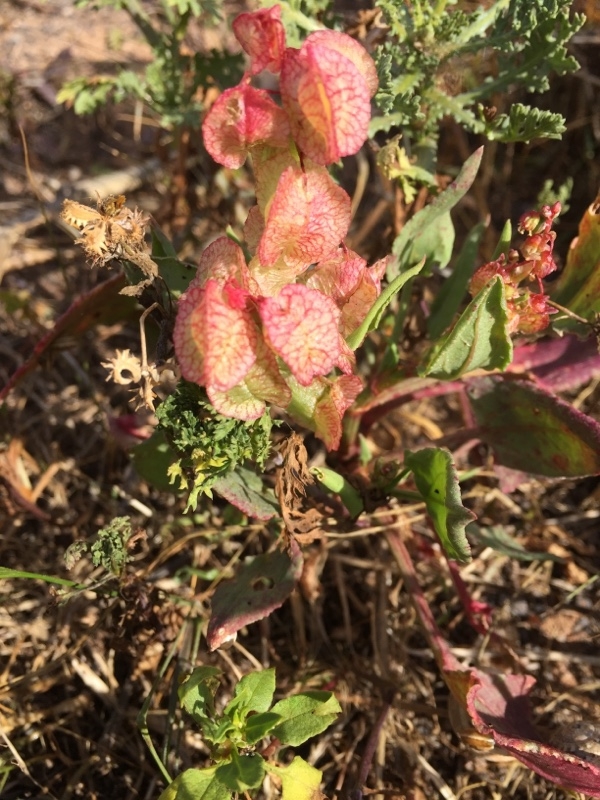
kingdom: Plantae
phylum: Tracheophyta
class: Magnoliopsida
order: Caryophyllales
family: Polygonaceae
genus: Rumex
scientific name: Rumex vesicarius
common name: Bladder dock
